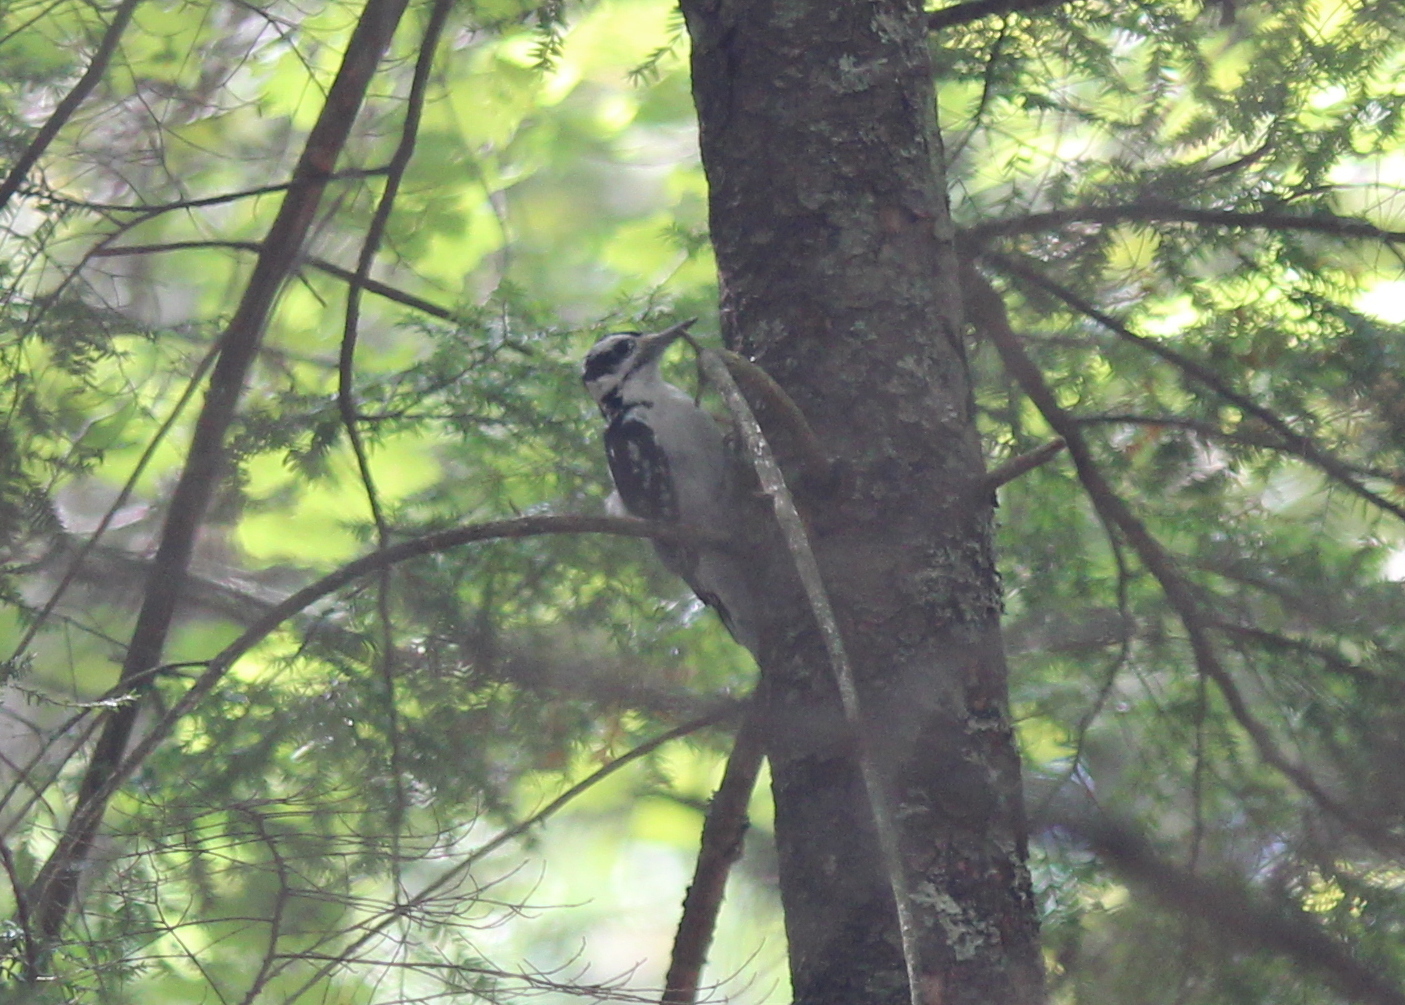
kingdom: Animalia
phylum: Chordata
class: Aves
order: Piciformes
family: Picidae
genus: Leuconotopicus
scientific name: Leuconotopicus villosus
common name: Hairy woodpecker
